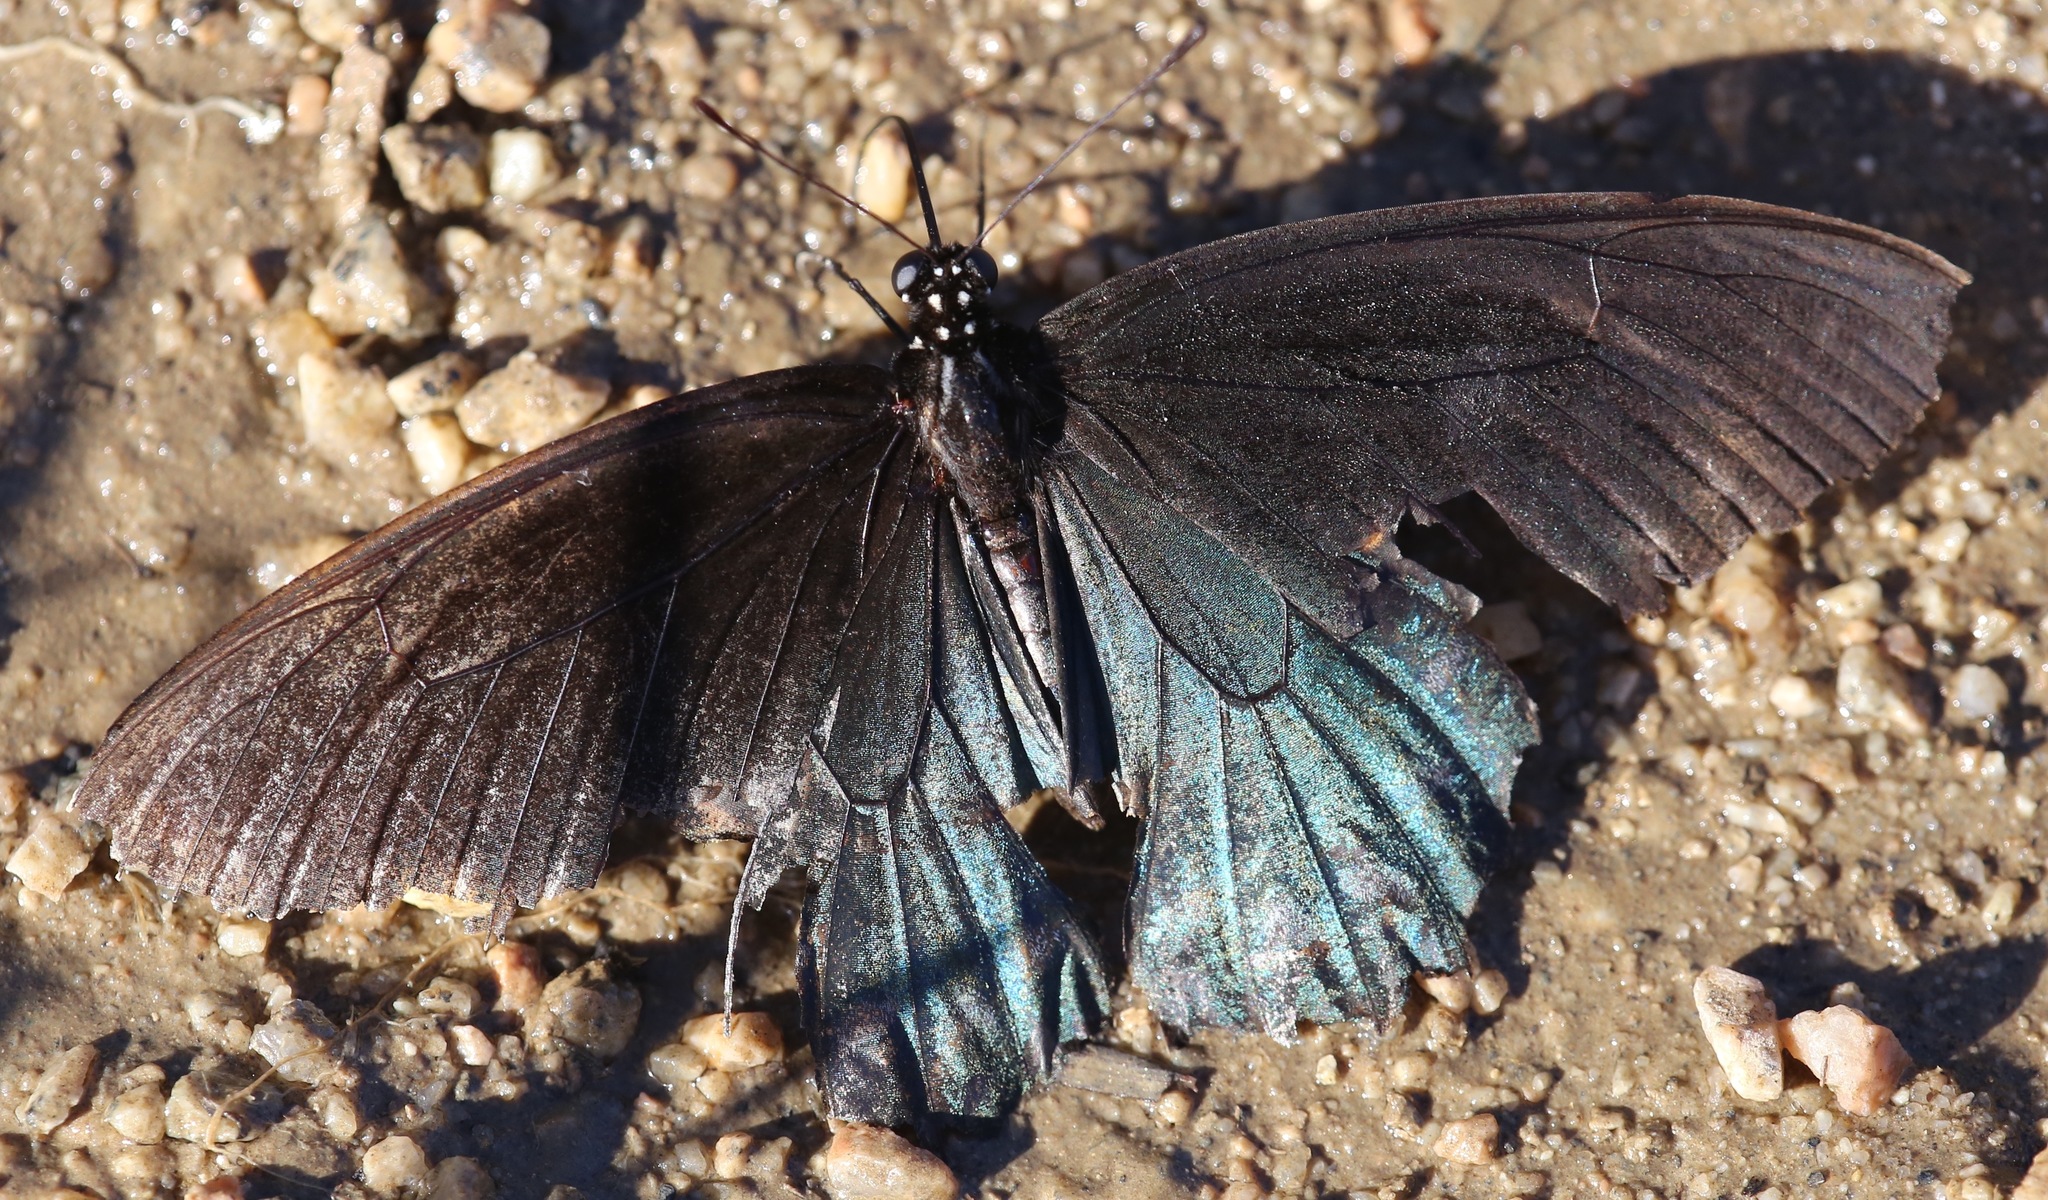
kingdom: Animalia
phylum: Arthropoda
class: Insecta
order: Lepidoptera
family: Papilionidae
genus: Battus
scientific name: Battus philenor
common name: Pipevine swallowtail
